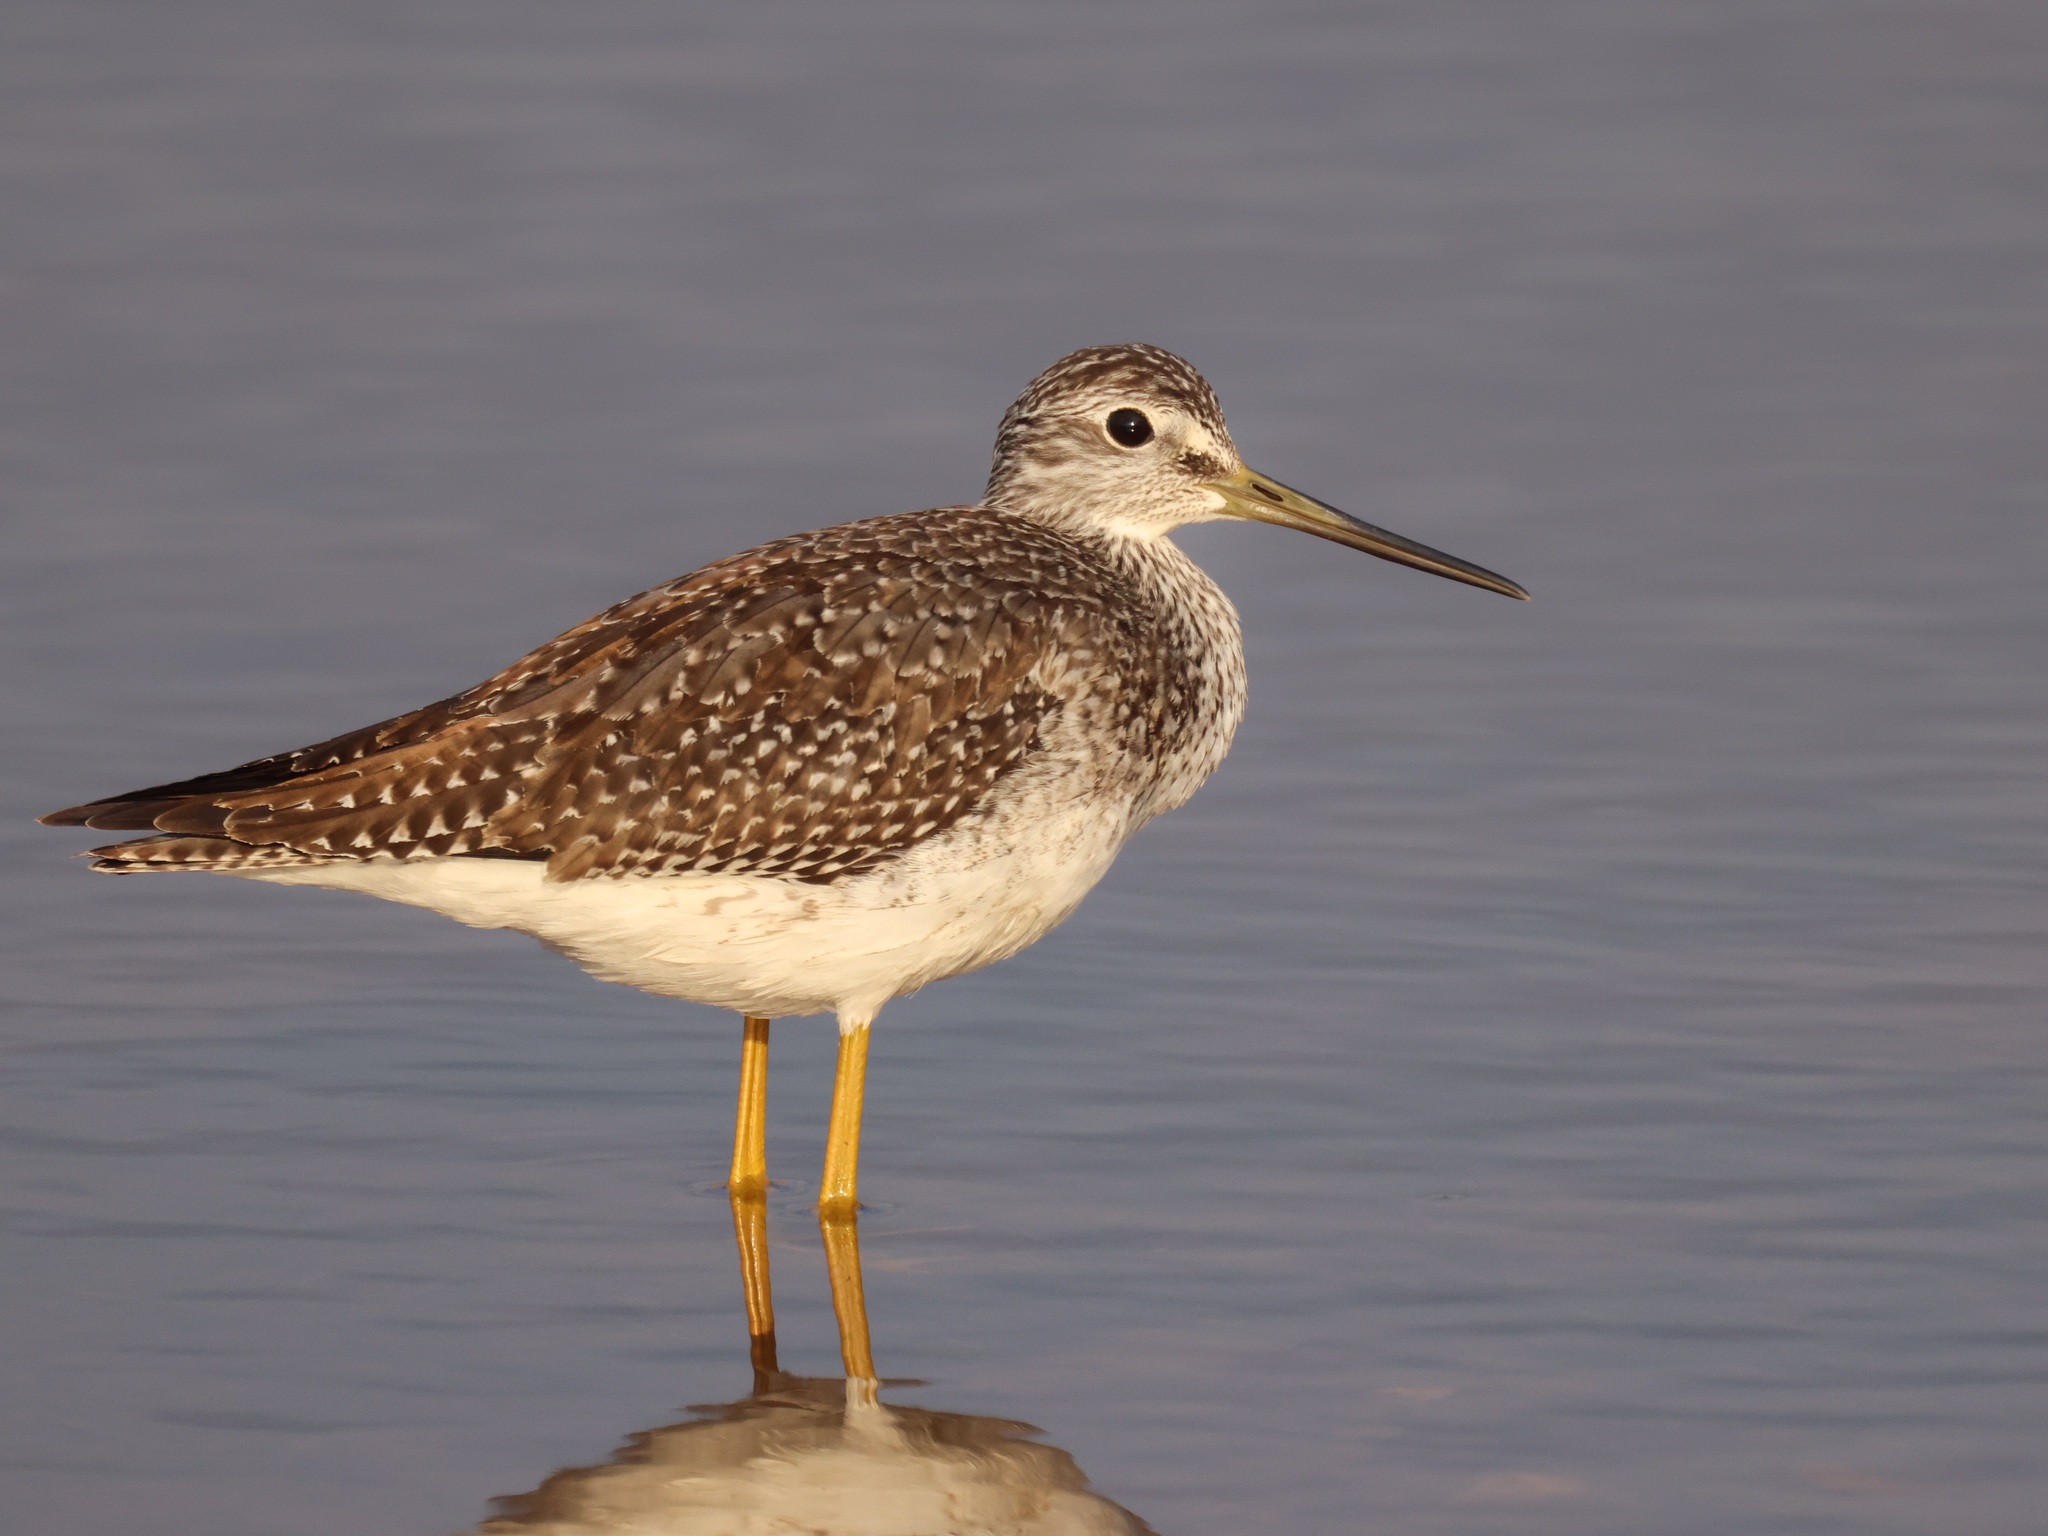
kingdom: Animalia
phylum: Chordata
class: Aves
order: Charadriiformes
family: Scolopacidae
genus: Tringa
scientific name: Tringa melanoleuca
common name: Greater yellowlegs
